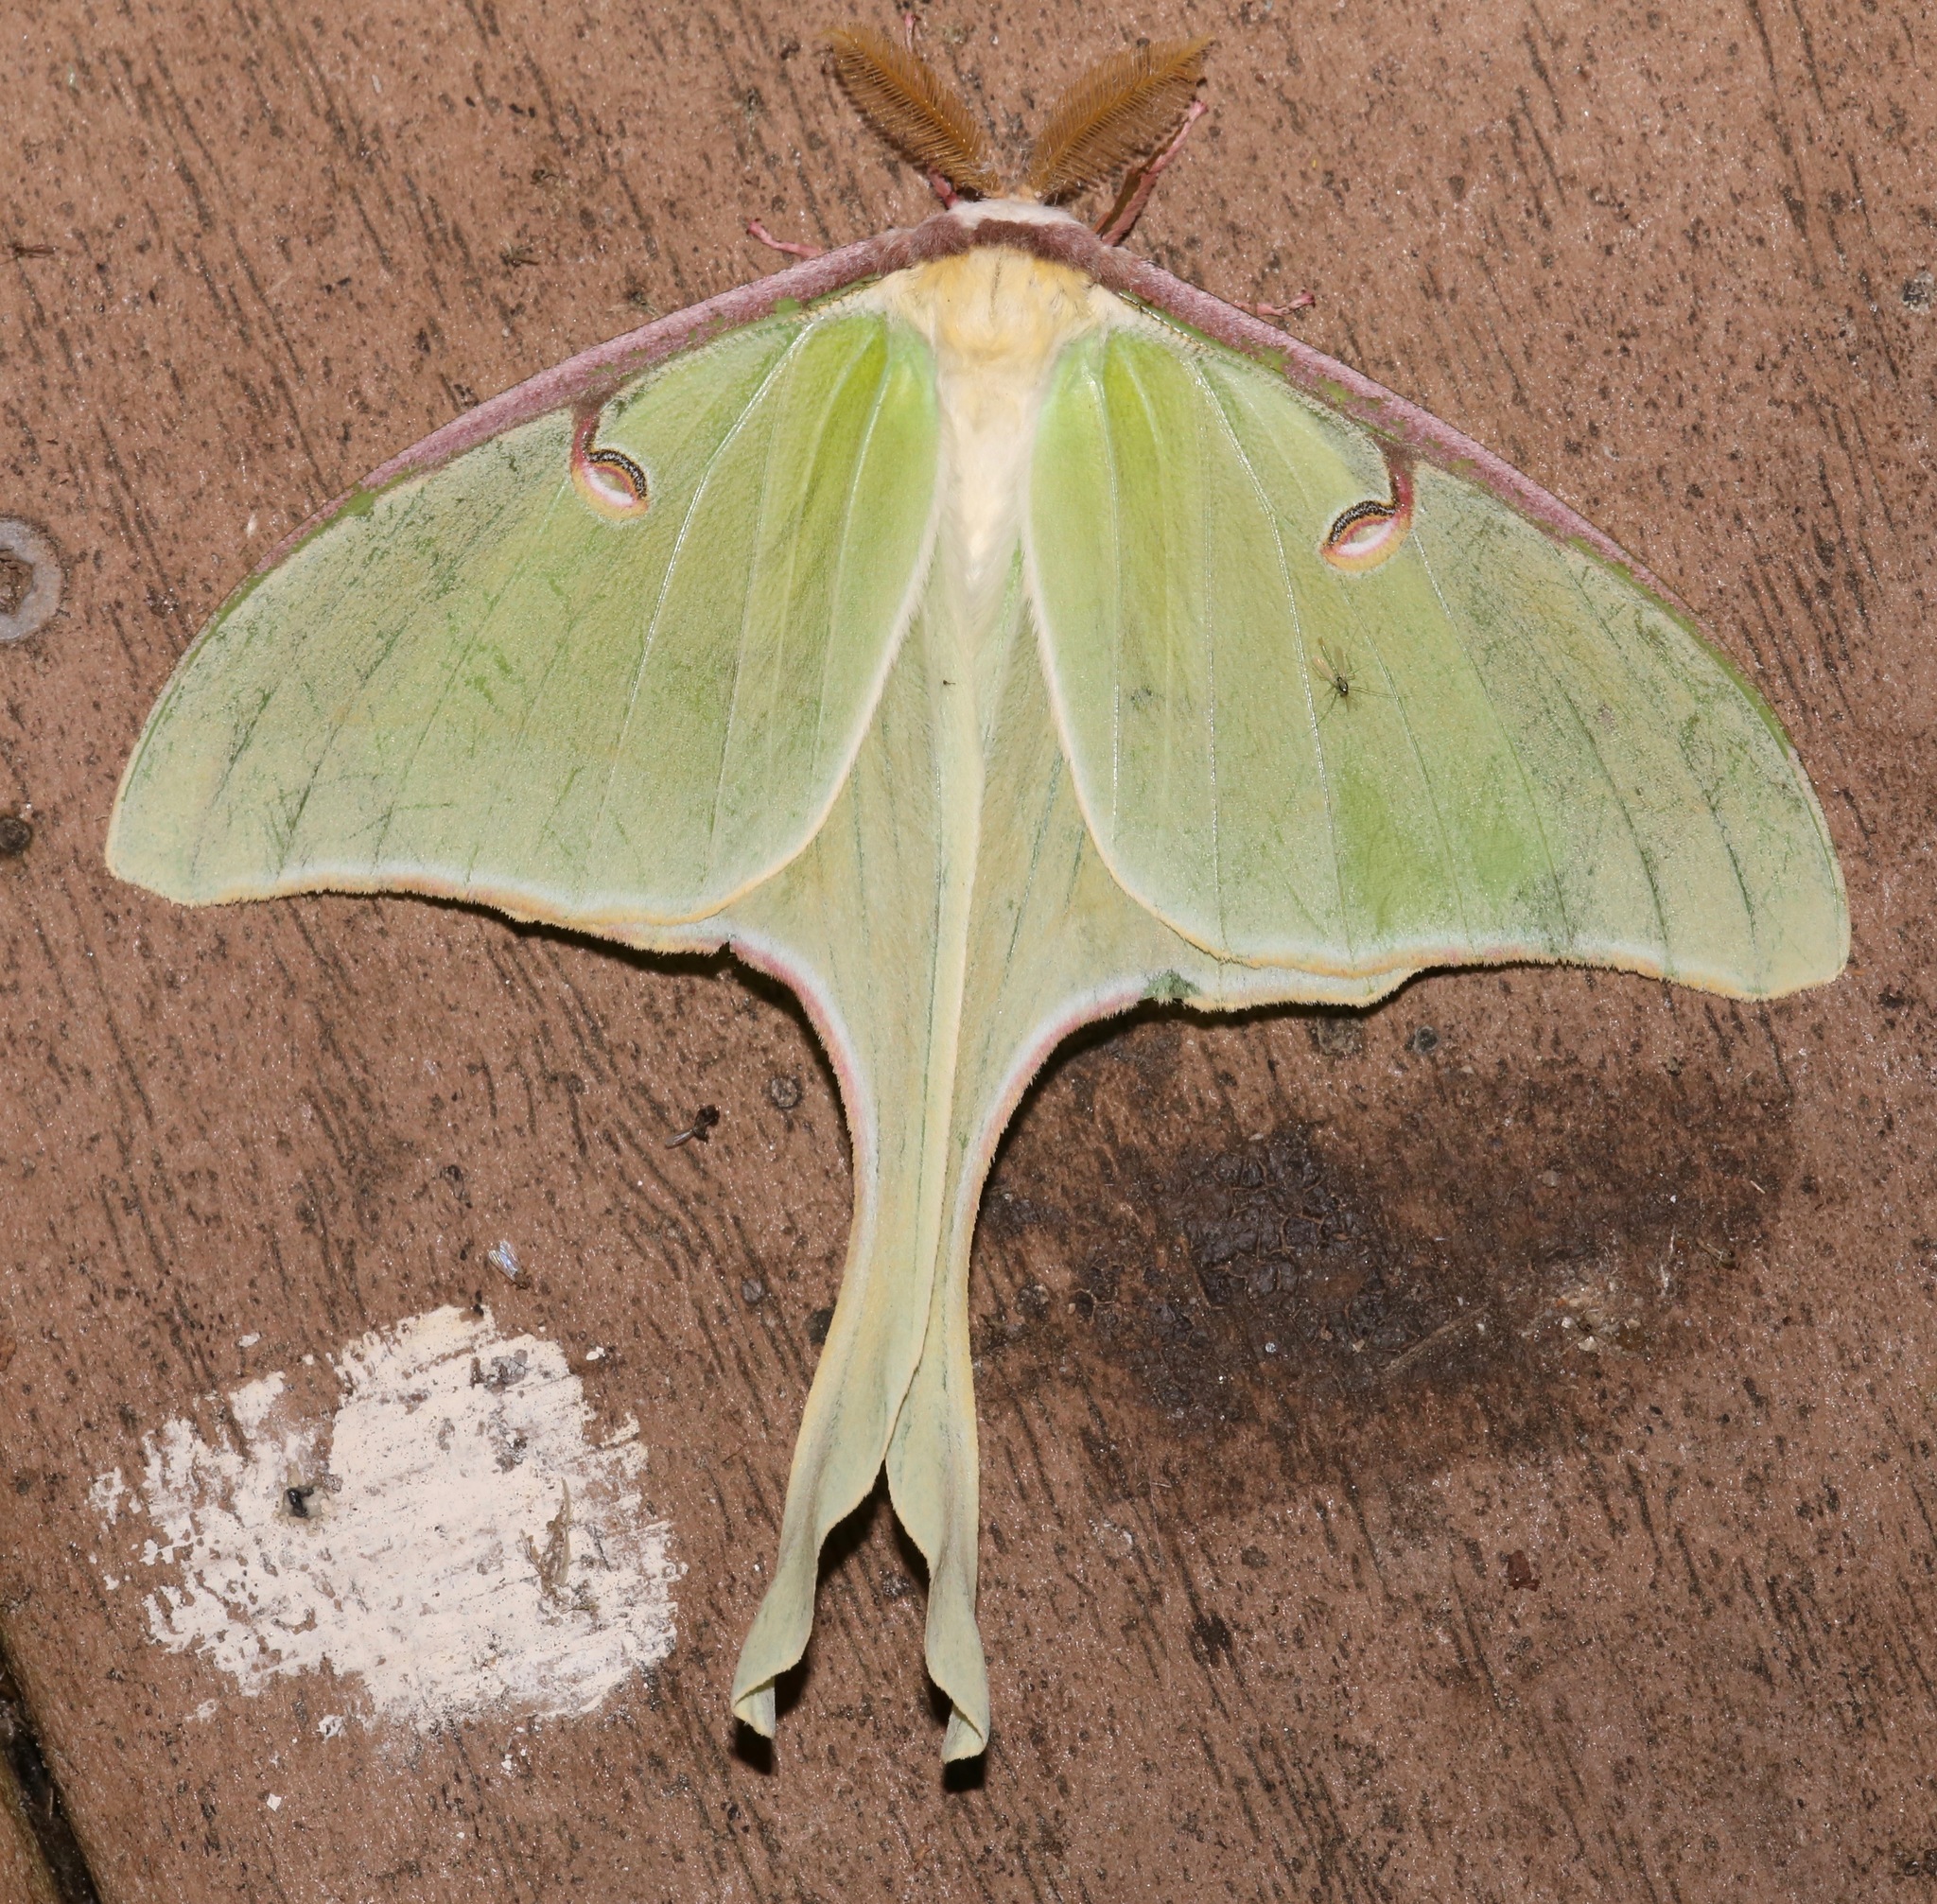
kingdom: Animalia
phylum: Arthropoda
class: Insecta
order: Lepidoptera
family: Saturniidae
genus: Actias
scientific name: Actias luna
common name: Luna moth
